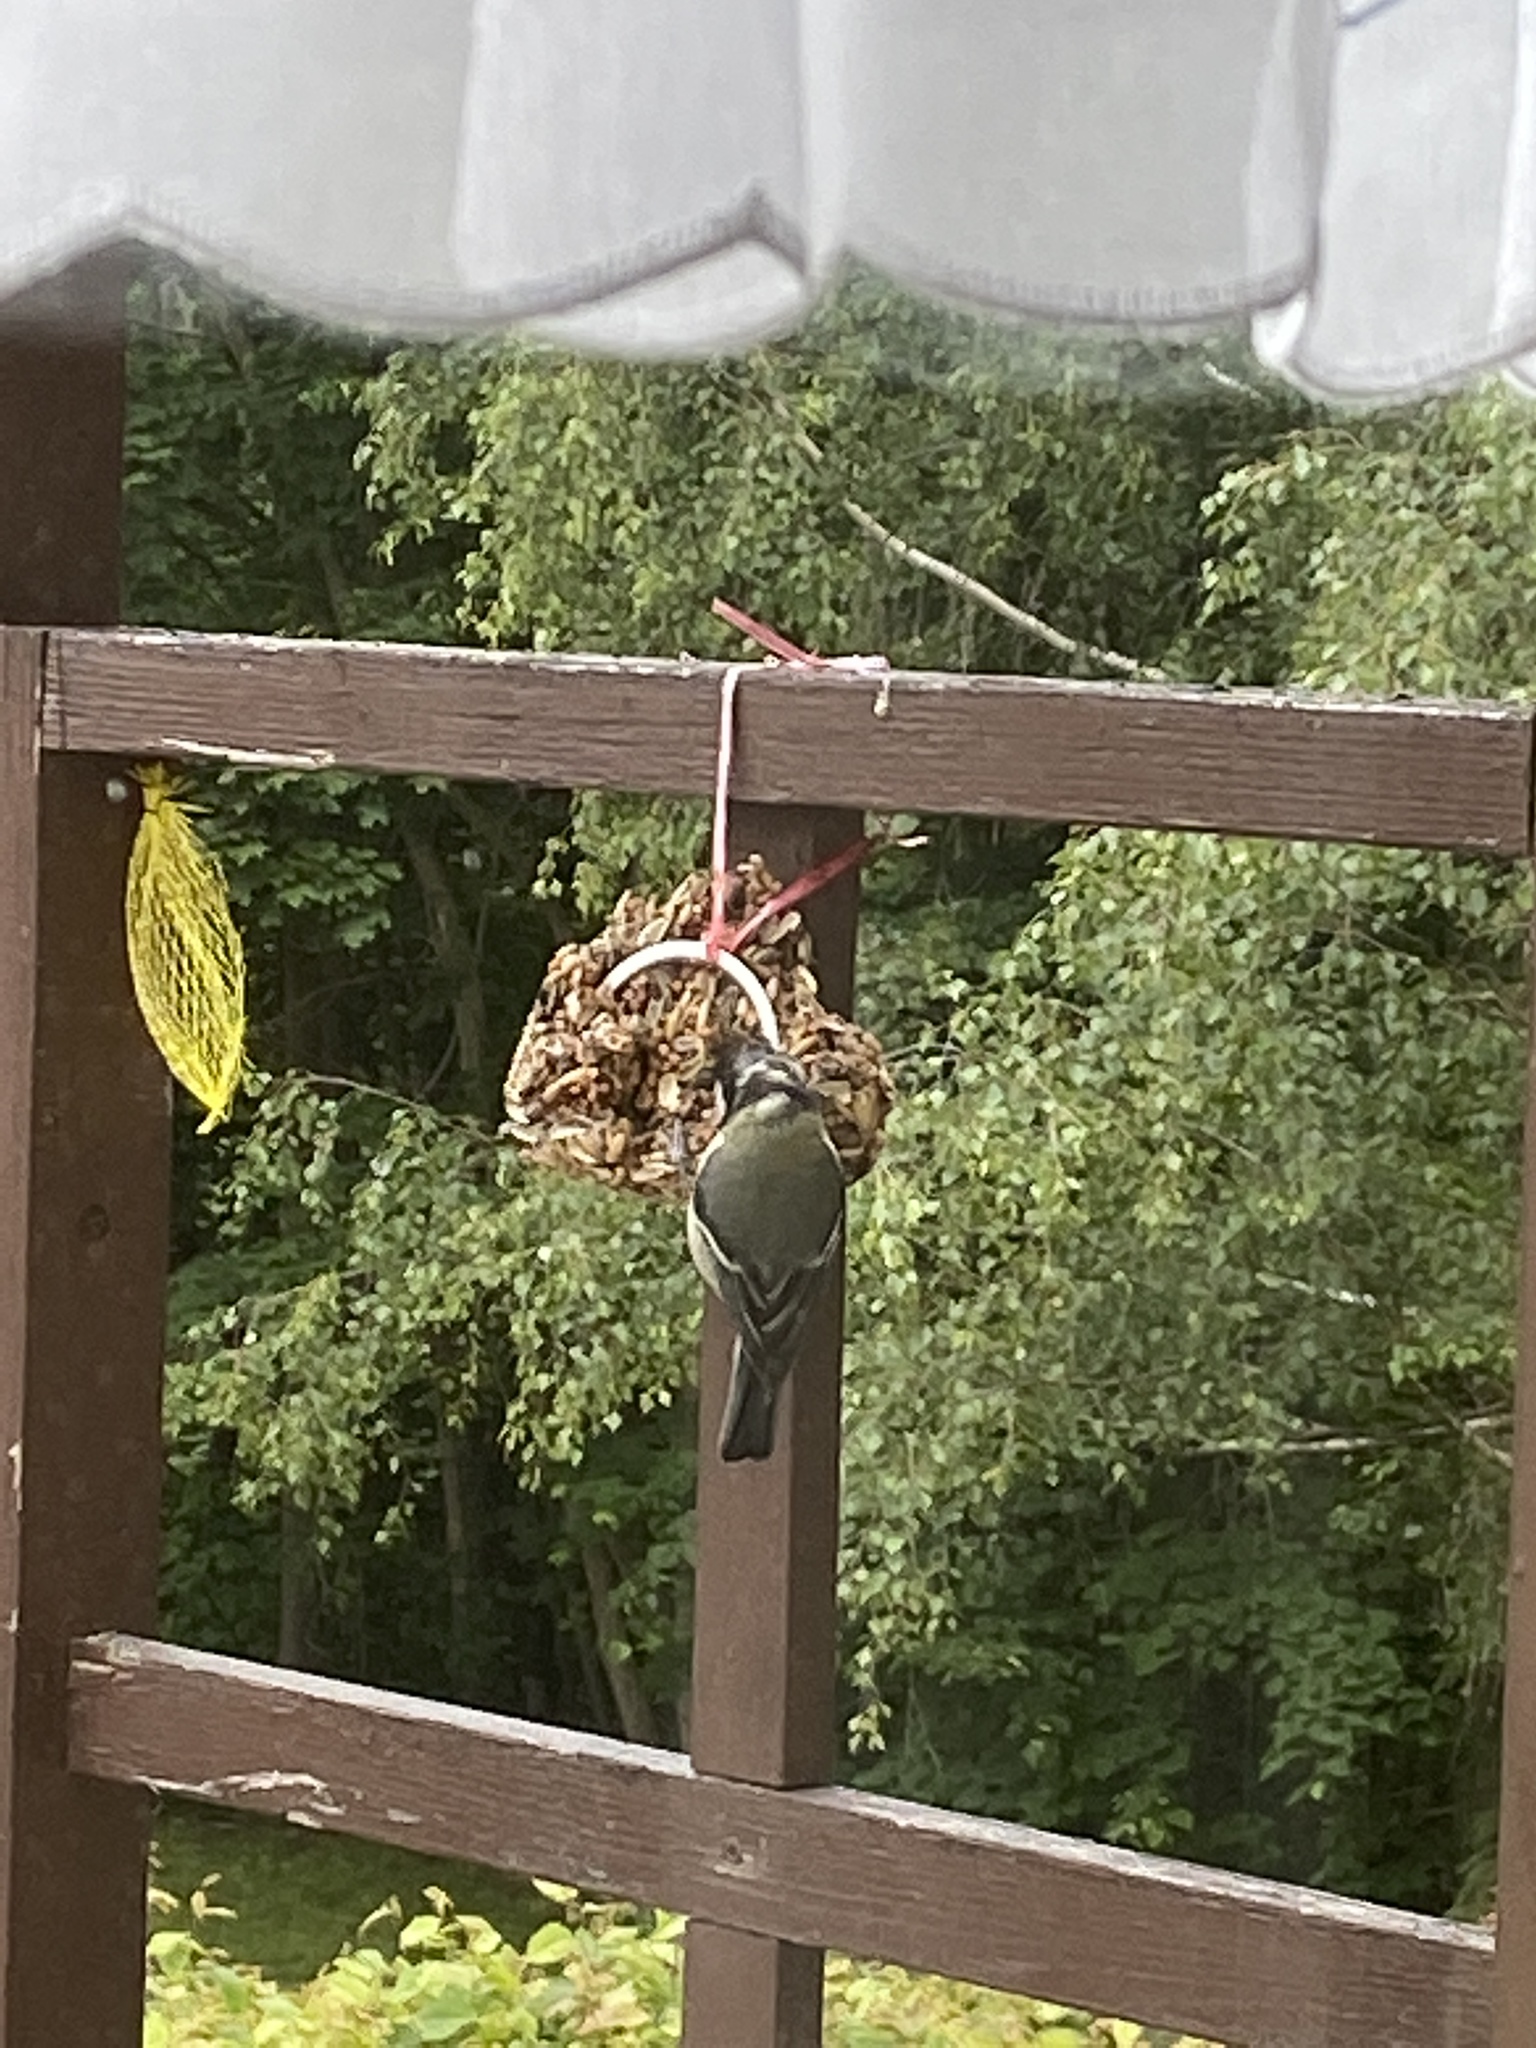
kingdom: Animalia
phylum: Chordata
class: Aves
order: Passeriformes
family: Paridae
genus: Parus
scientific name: Parus major
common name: Great tit
